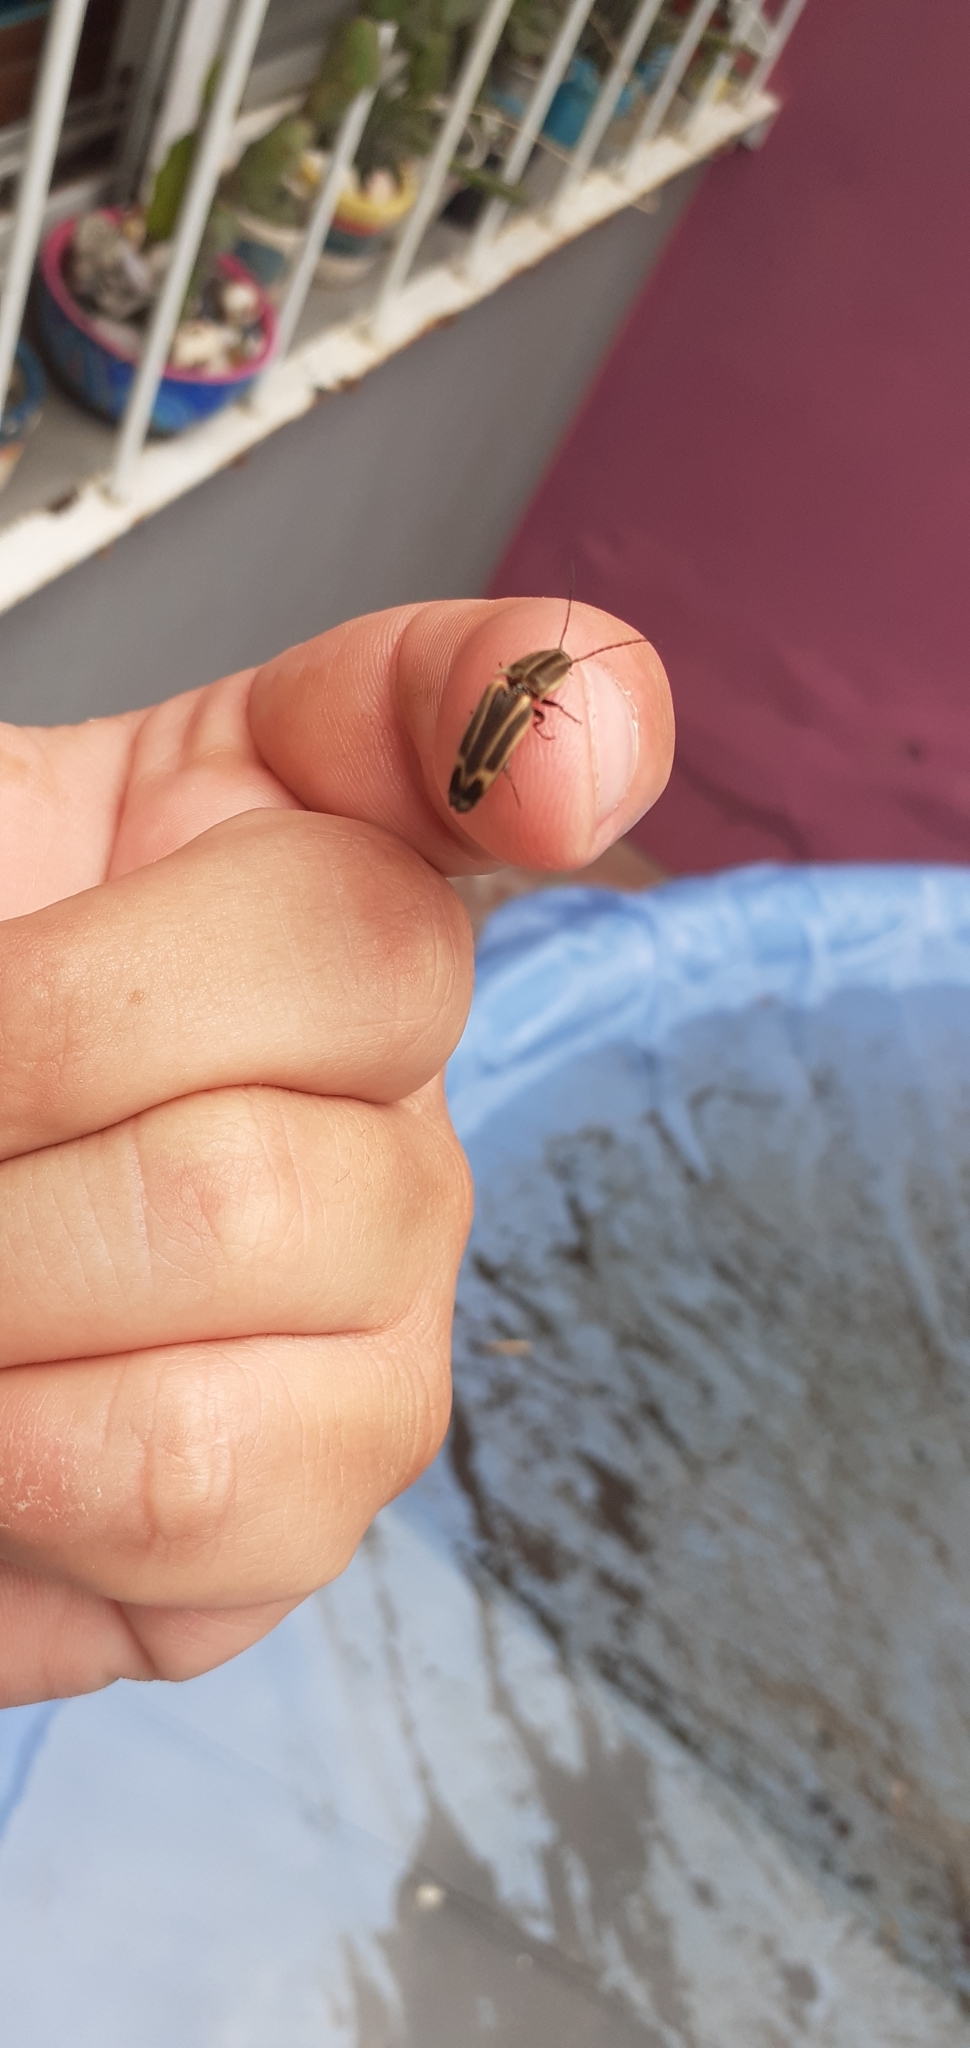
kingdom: Animalia
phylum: Arthropoda
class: Insecta
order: Coleoptera
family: Elateridae
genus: Monocrepidius
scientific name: Monocrepidius
